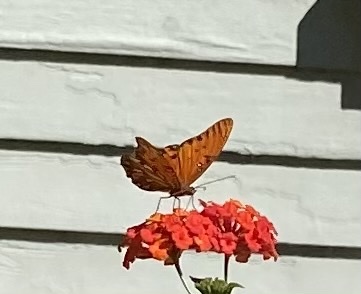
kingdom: Animalia
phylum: Arthropoda
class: Insecta
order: Lepidoptera
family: Nymphalidae
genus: Dione
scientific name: Dione vanillae
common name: Gulf fritillary
